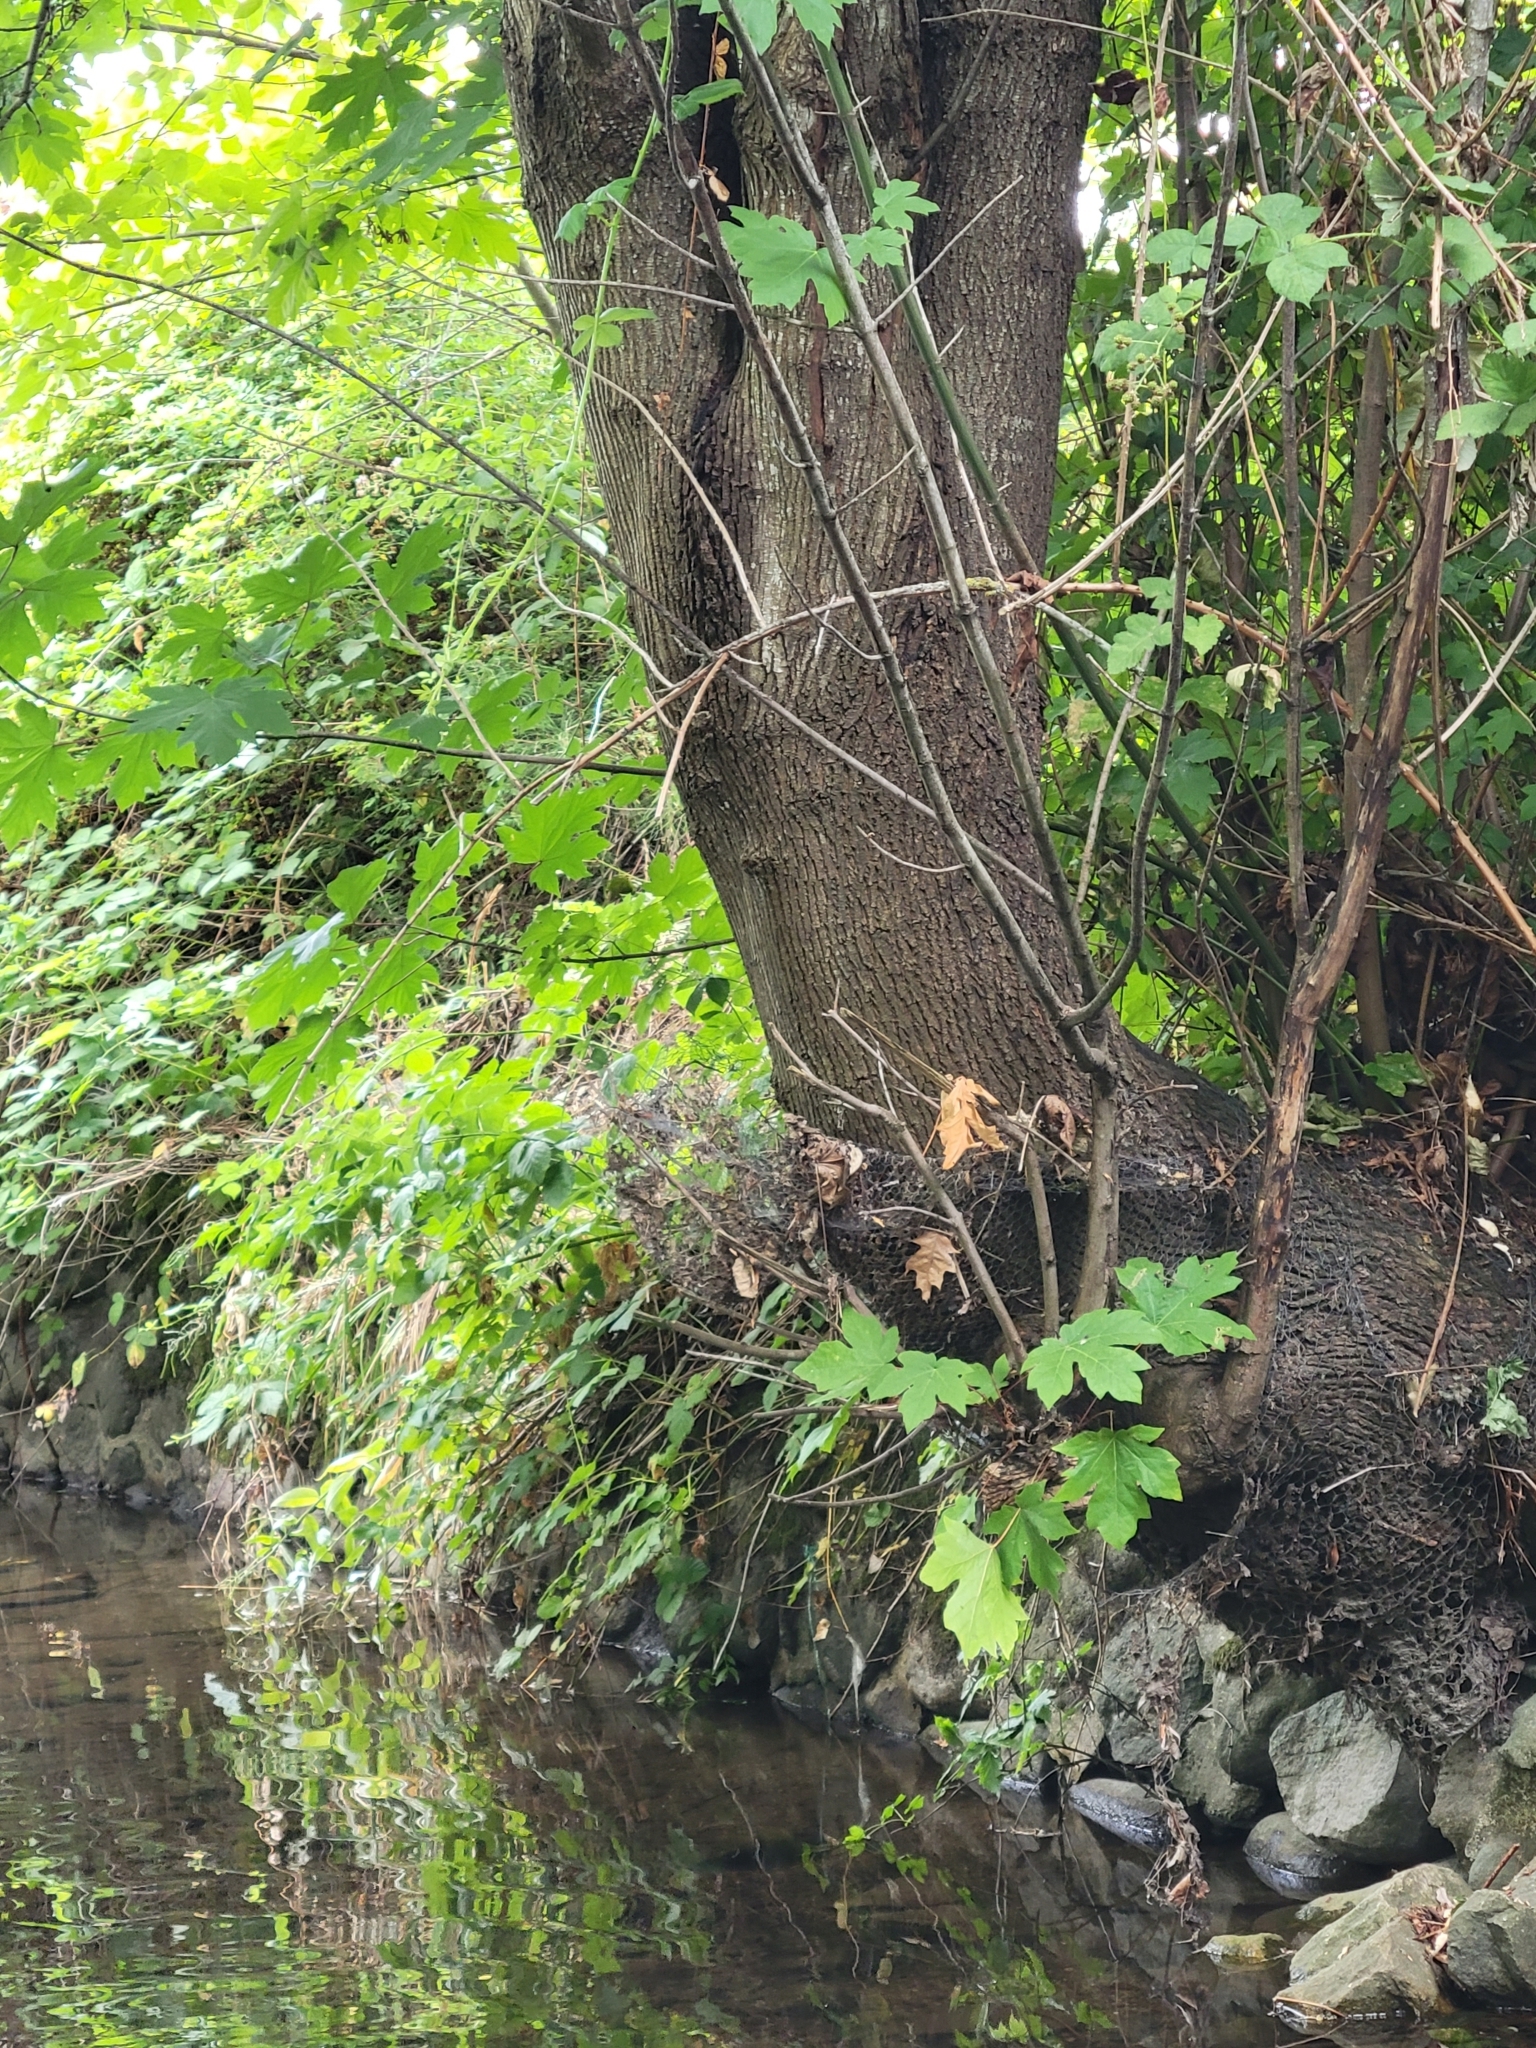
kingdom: Plantae
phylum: Tracheophyta
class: Magnoliopsida
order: Sapindales
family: Sapindaceae
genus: Acer
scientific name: Acer macrophyllum
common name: Oregon maple
